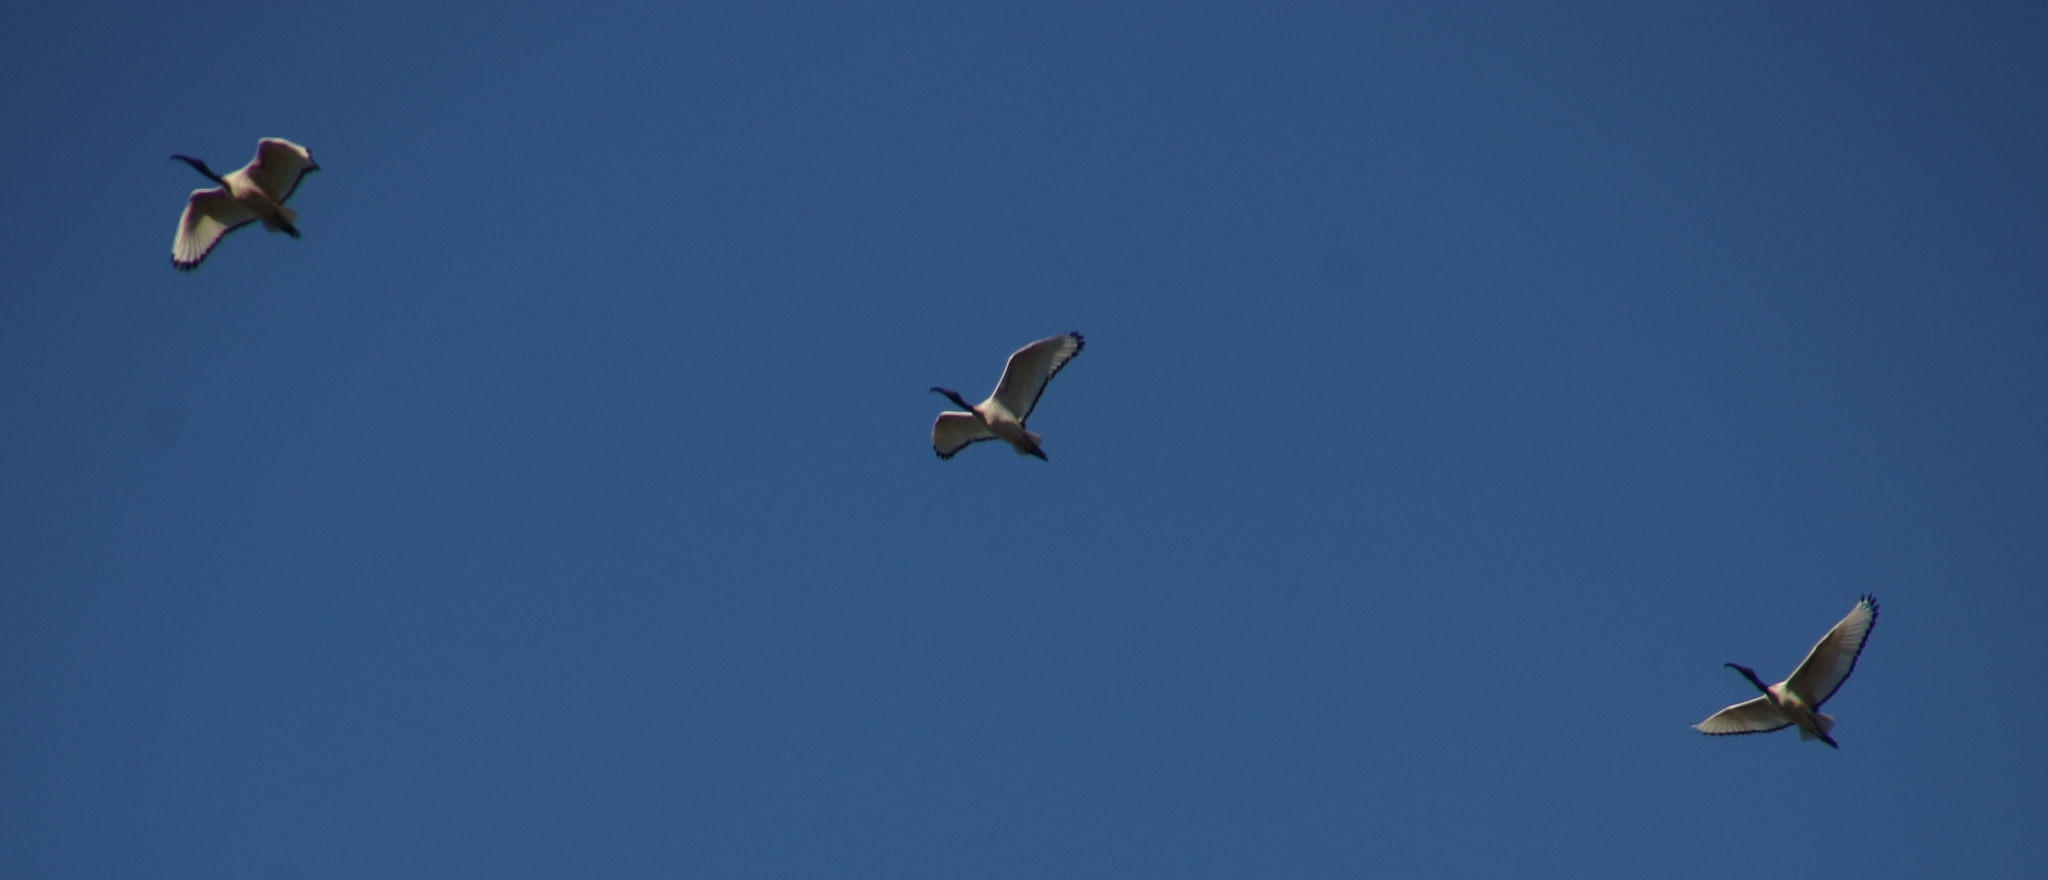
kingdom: Animalia
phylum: Chordata
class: Aves
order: Pelecaniformes
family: Threskiornithidae
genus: Threskiornis
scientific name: Threskiornis aethiopicus
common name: Sacred ibis
